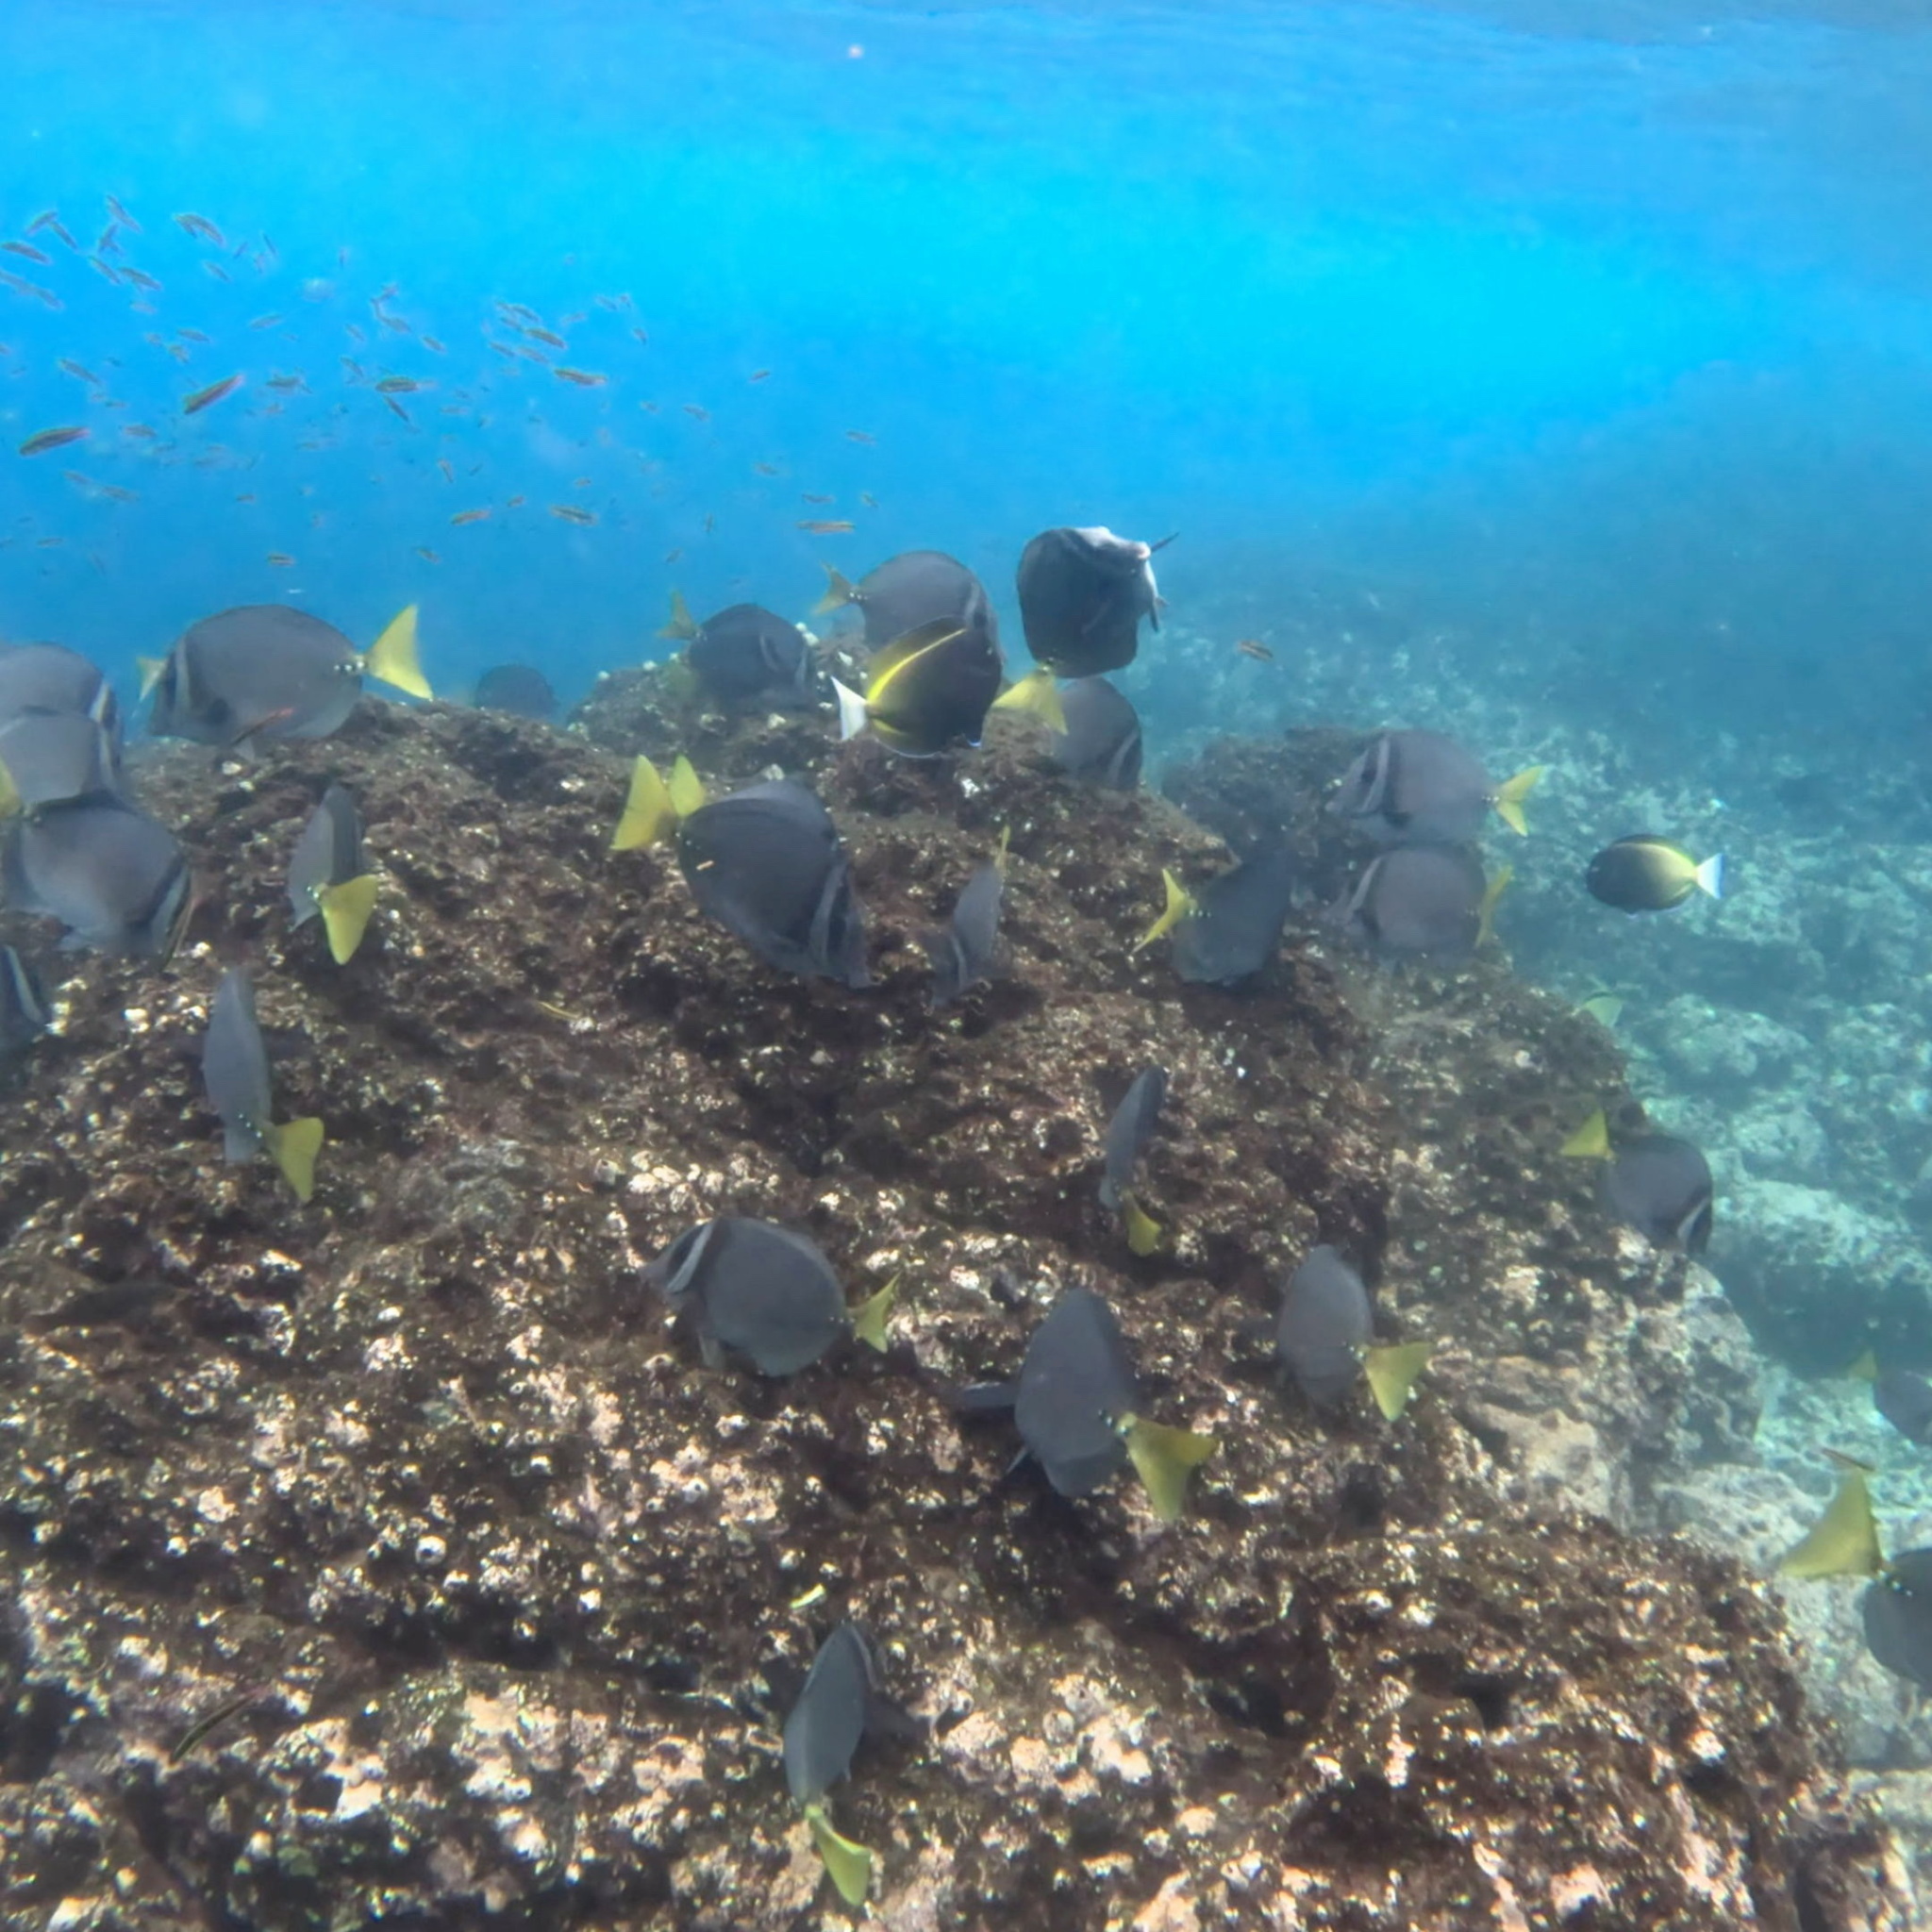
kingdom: Animalia
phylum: Chordata
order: Perciformes
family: Acanthuridae
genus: Acanthurus
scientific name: Acanthurus nigricans
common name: Whitecheek surgeonfish
